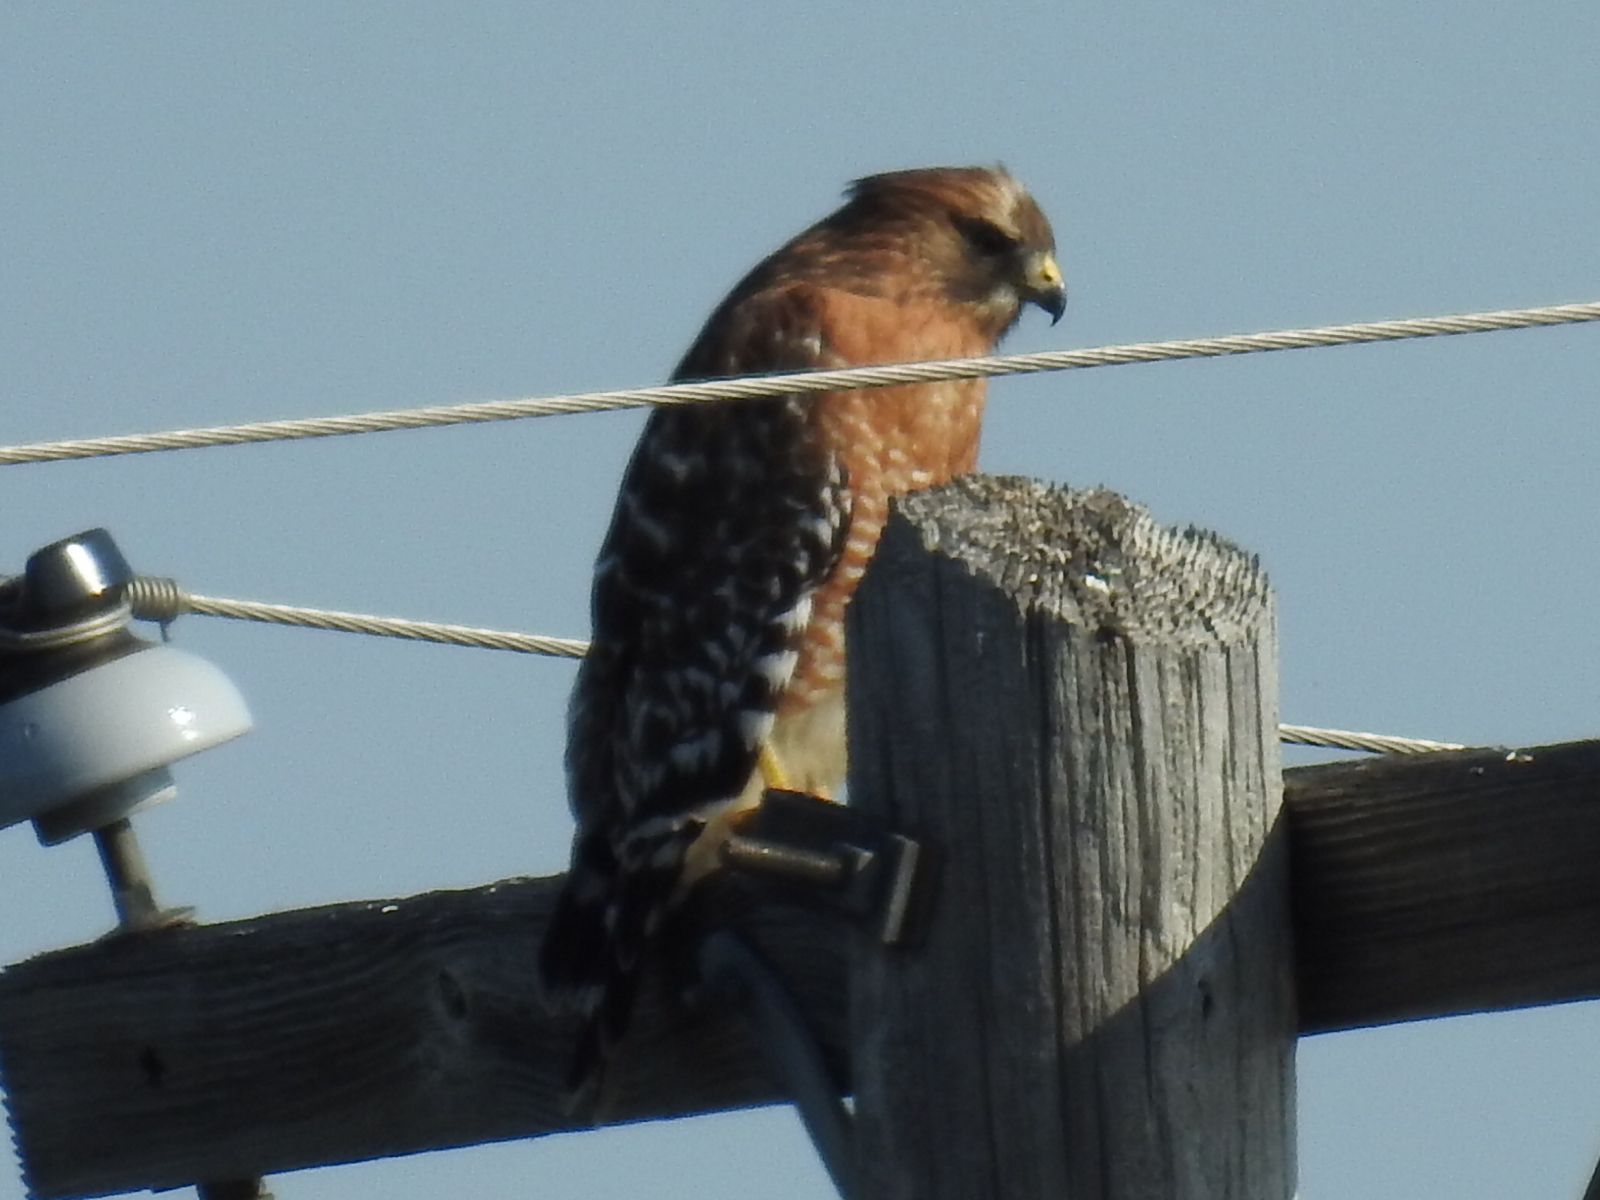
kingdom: Animalia
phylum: Chordata
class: Aves
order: Accipitriformes
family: Accipitridae
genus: Buteo
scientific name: Buteo lineatus
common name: Red-shouldered hawk
